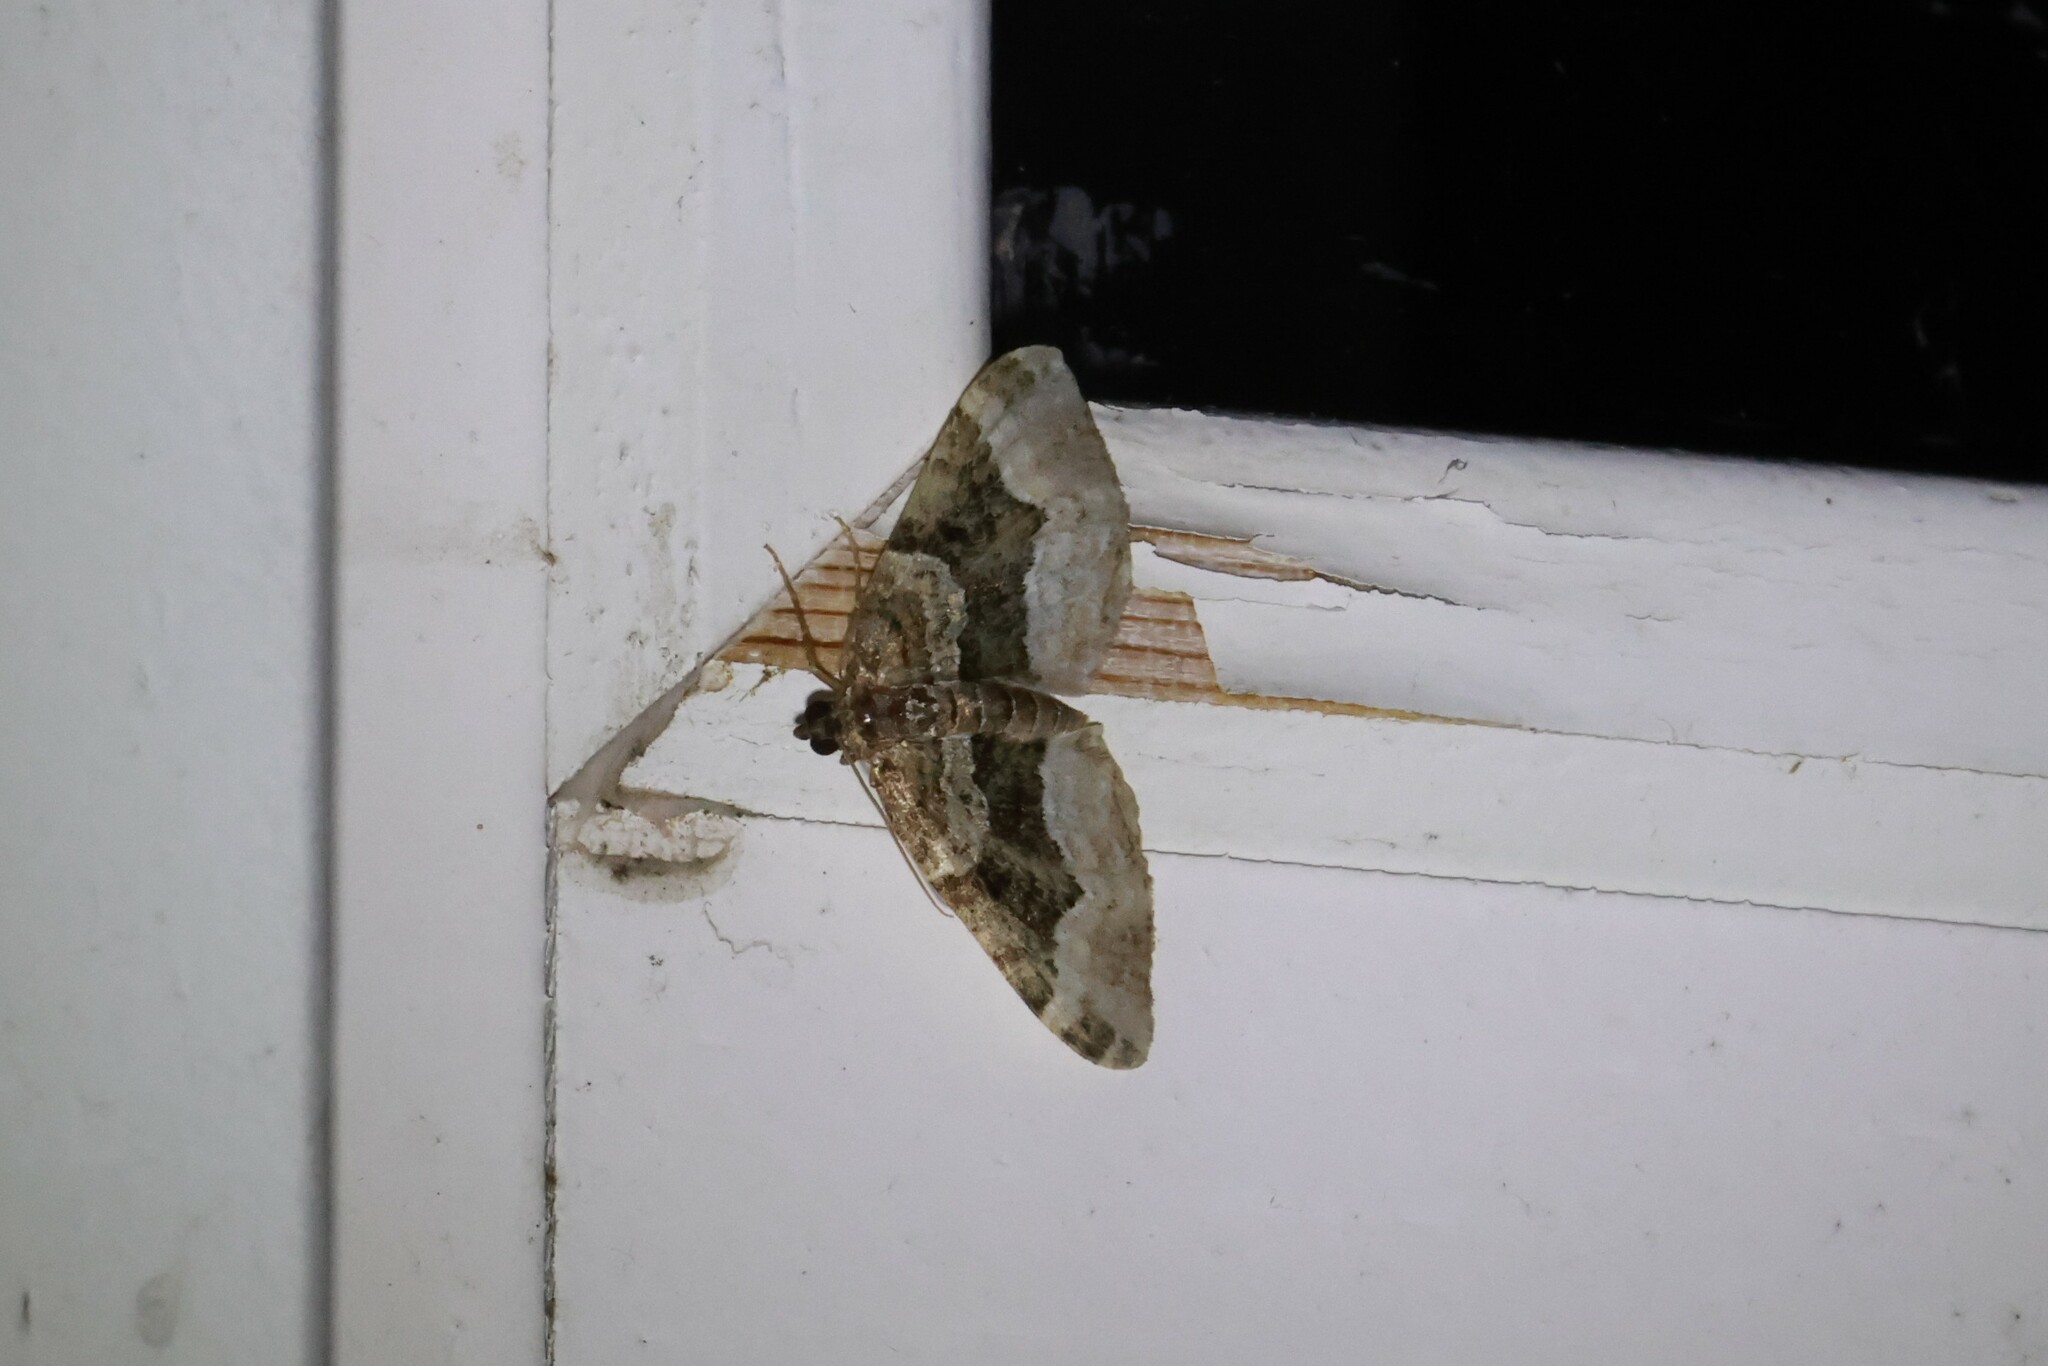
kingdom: Animalia
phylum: Arthropoda
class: Insecta
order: Lepidoptera
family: Geometridae
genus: Euphyia
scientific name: Euphyia intermediata
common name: Sharp-angled carpet
